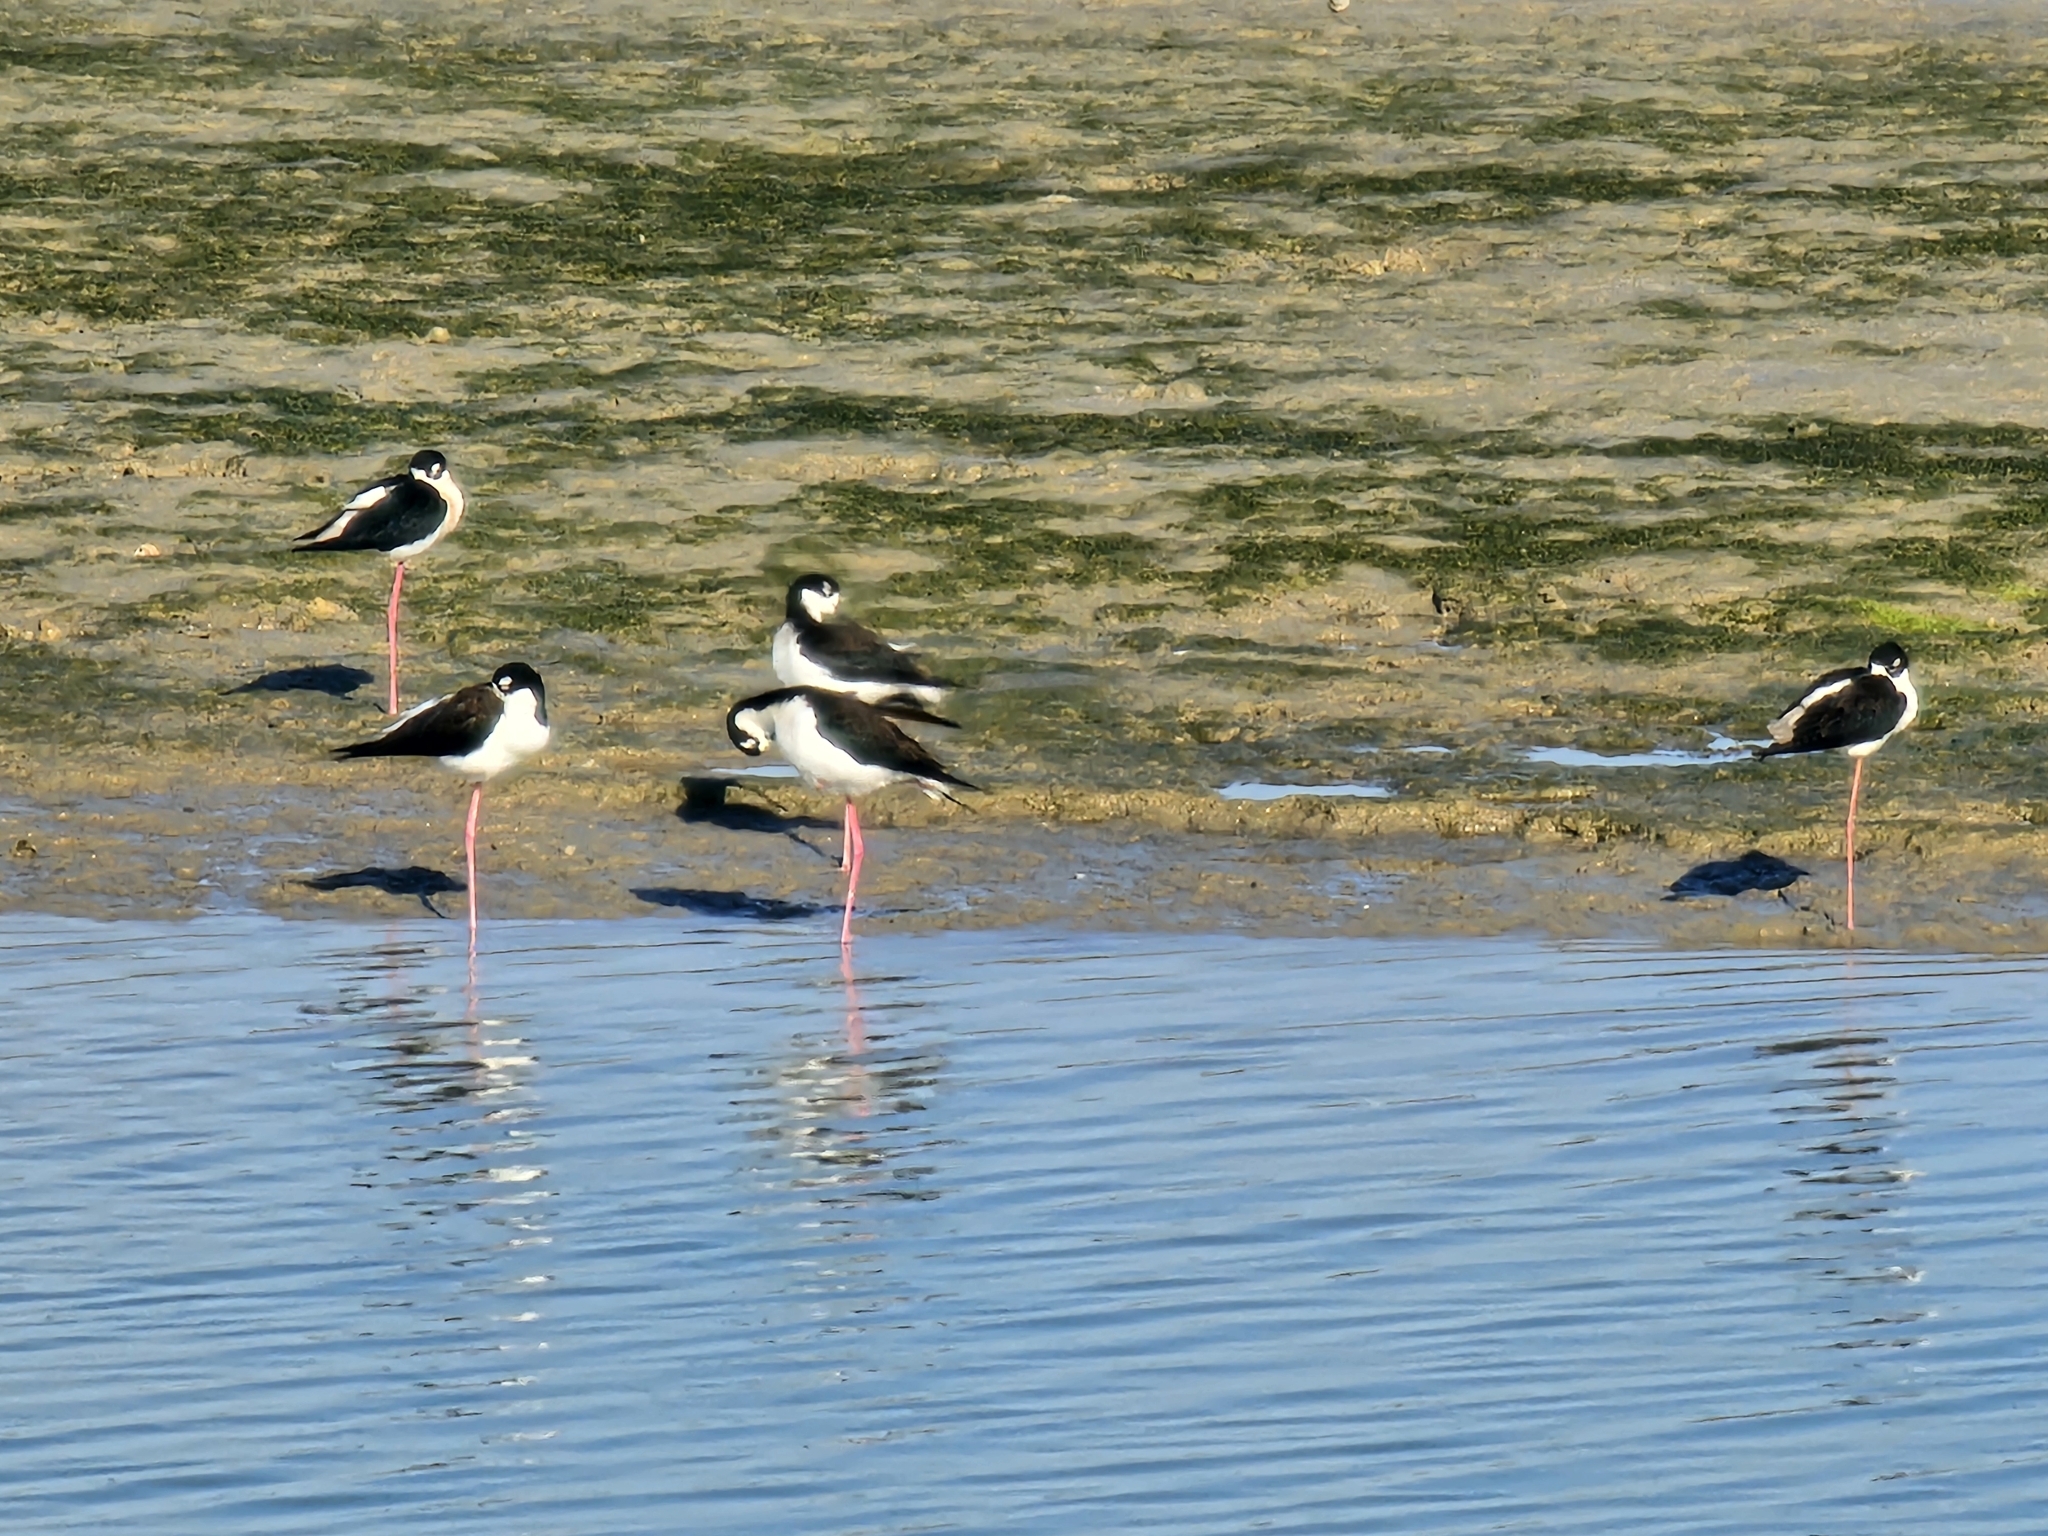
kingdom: Animalia
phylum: Chordata
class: Aves
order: Charadriiformes
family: Recurvirostridae
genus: Himantopus
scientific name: Himantopus mexicanus
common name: Black-necked stilt
